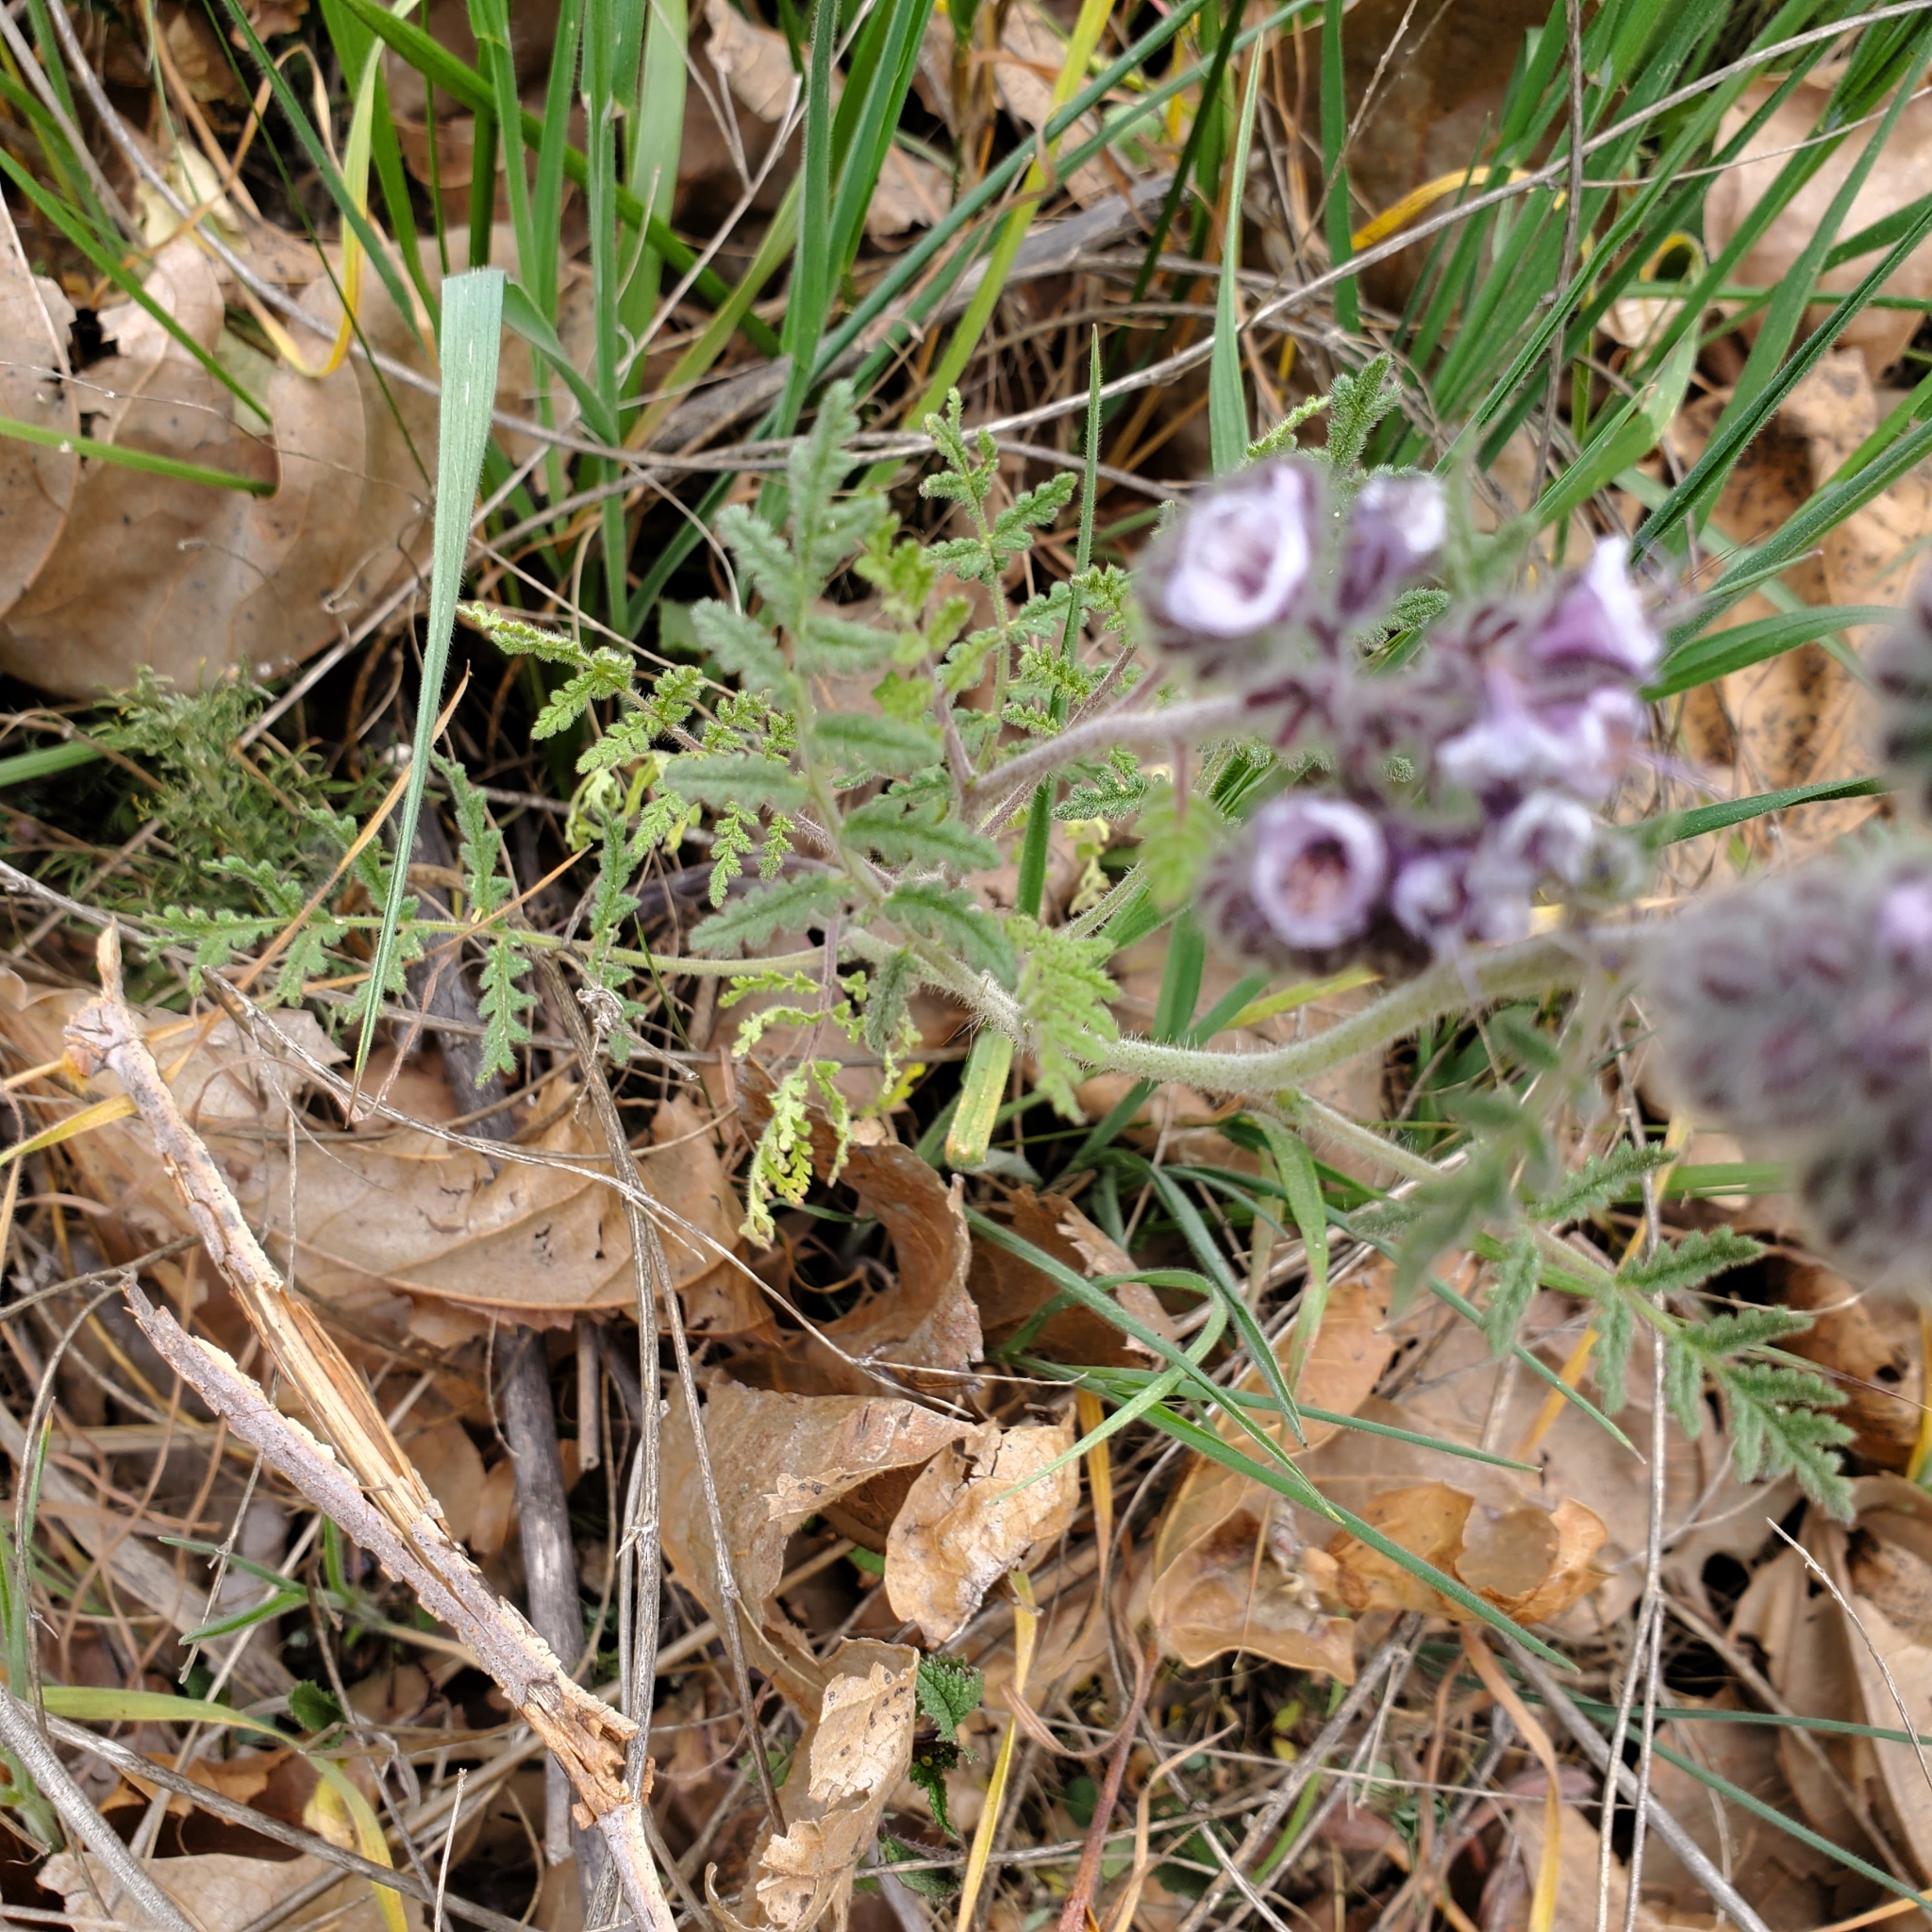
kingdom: Plantae
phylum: Tracheophyta
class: Magnoliopsida
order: Boraginales
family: Hydrophyllaceae
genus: Phacelia
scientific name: Phacelia hubbyi
